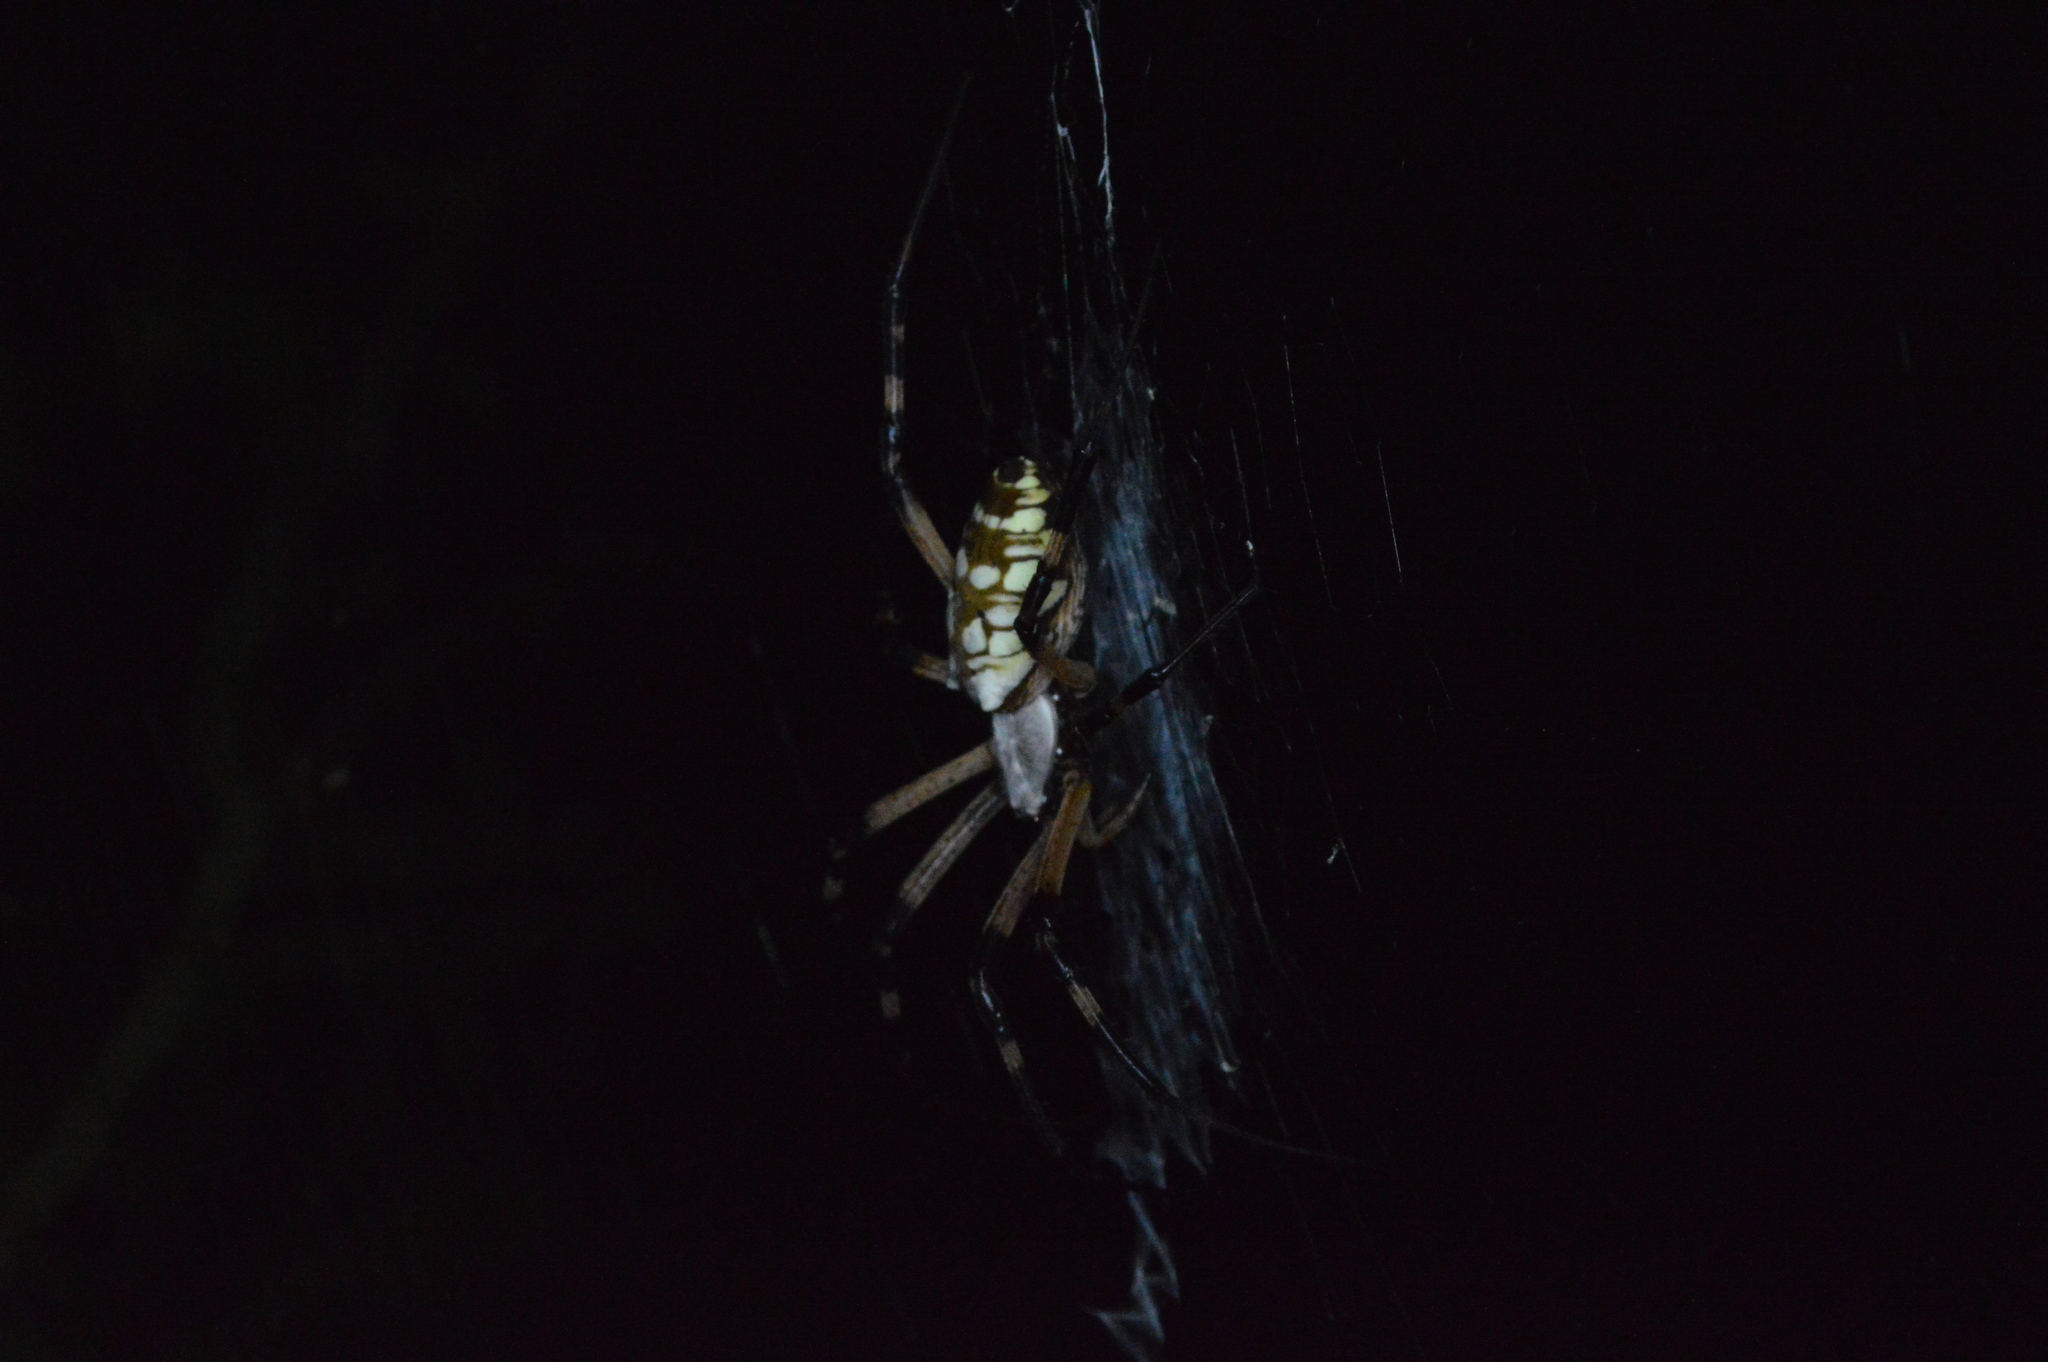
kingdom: Animalia
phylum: Arthropoda
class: Arachnida
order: Araneae
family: Araneidae
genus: Argiope
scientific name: Argiope aurantia
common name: Orb weavers
